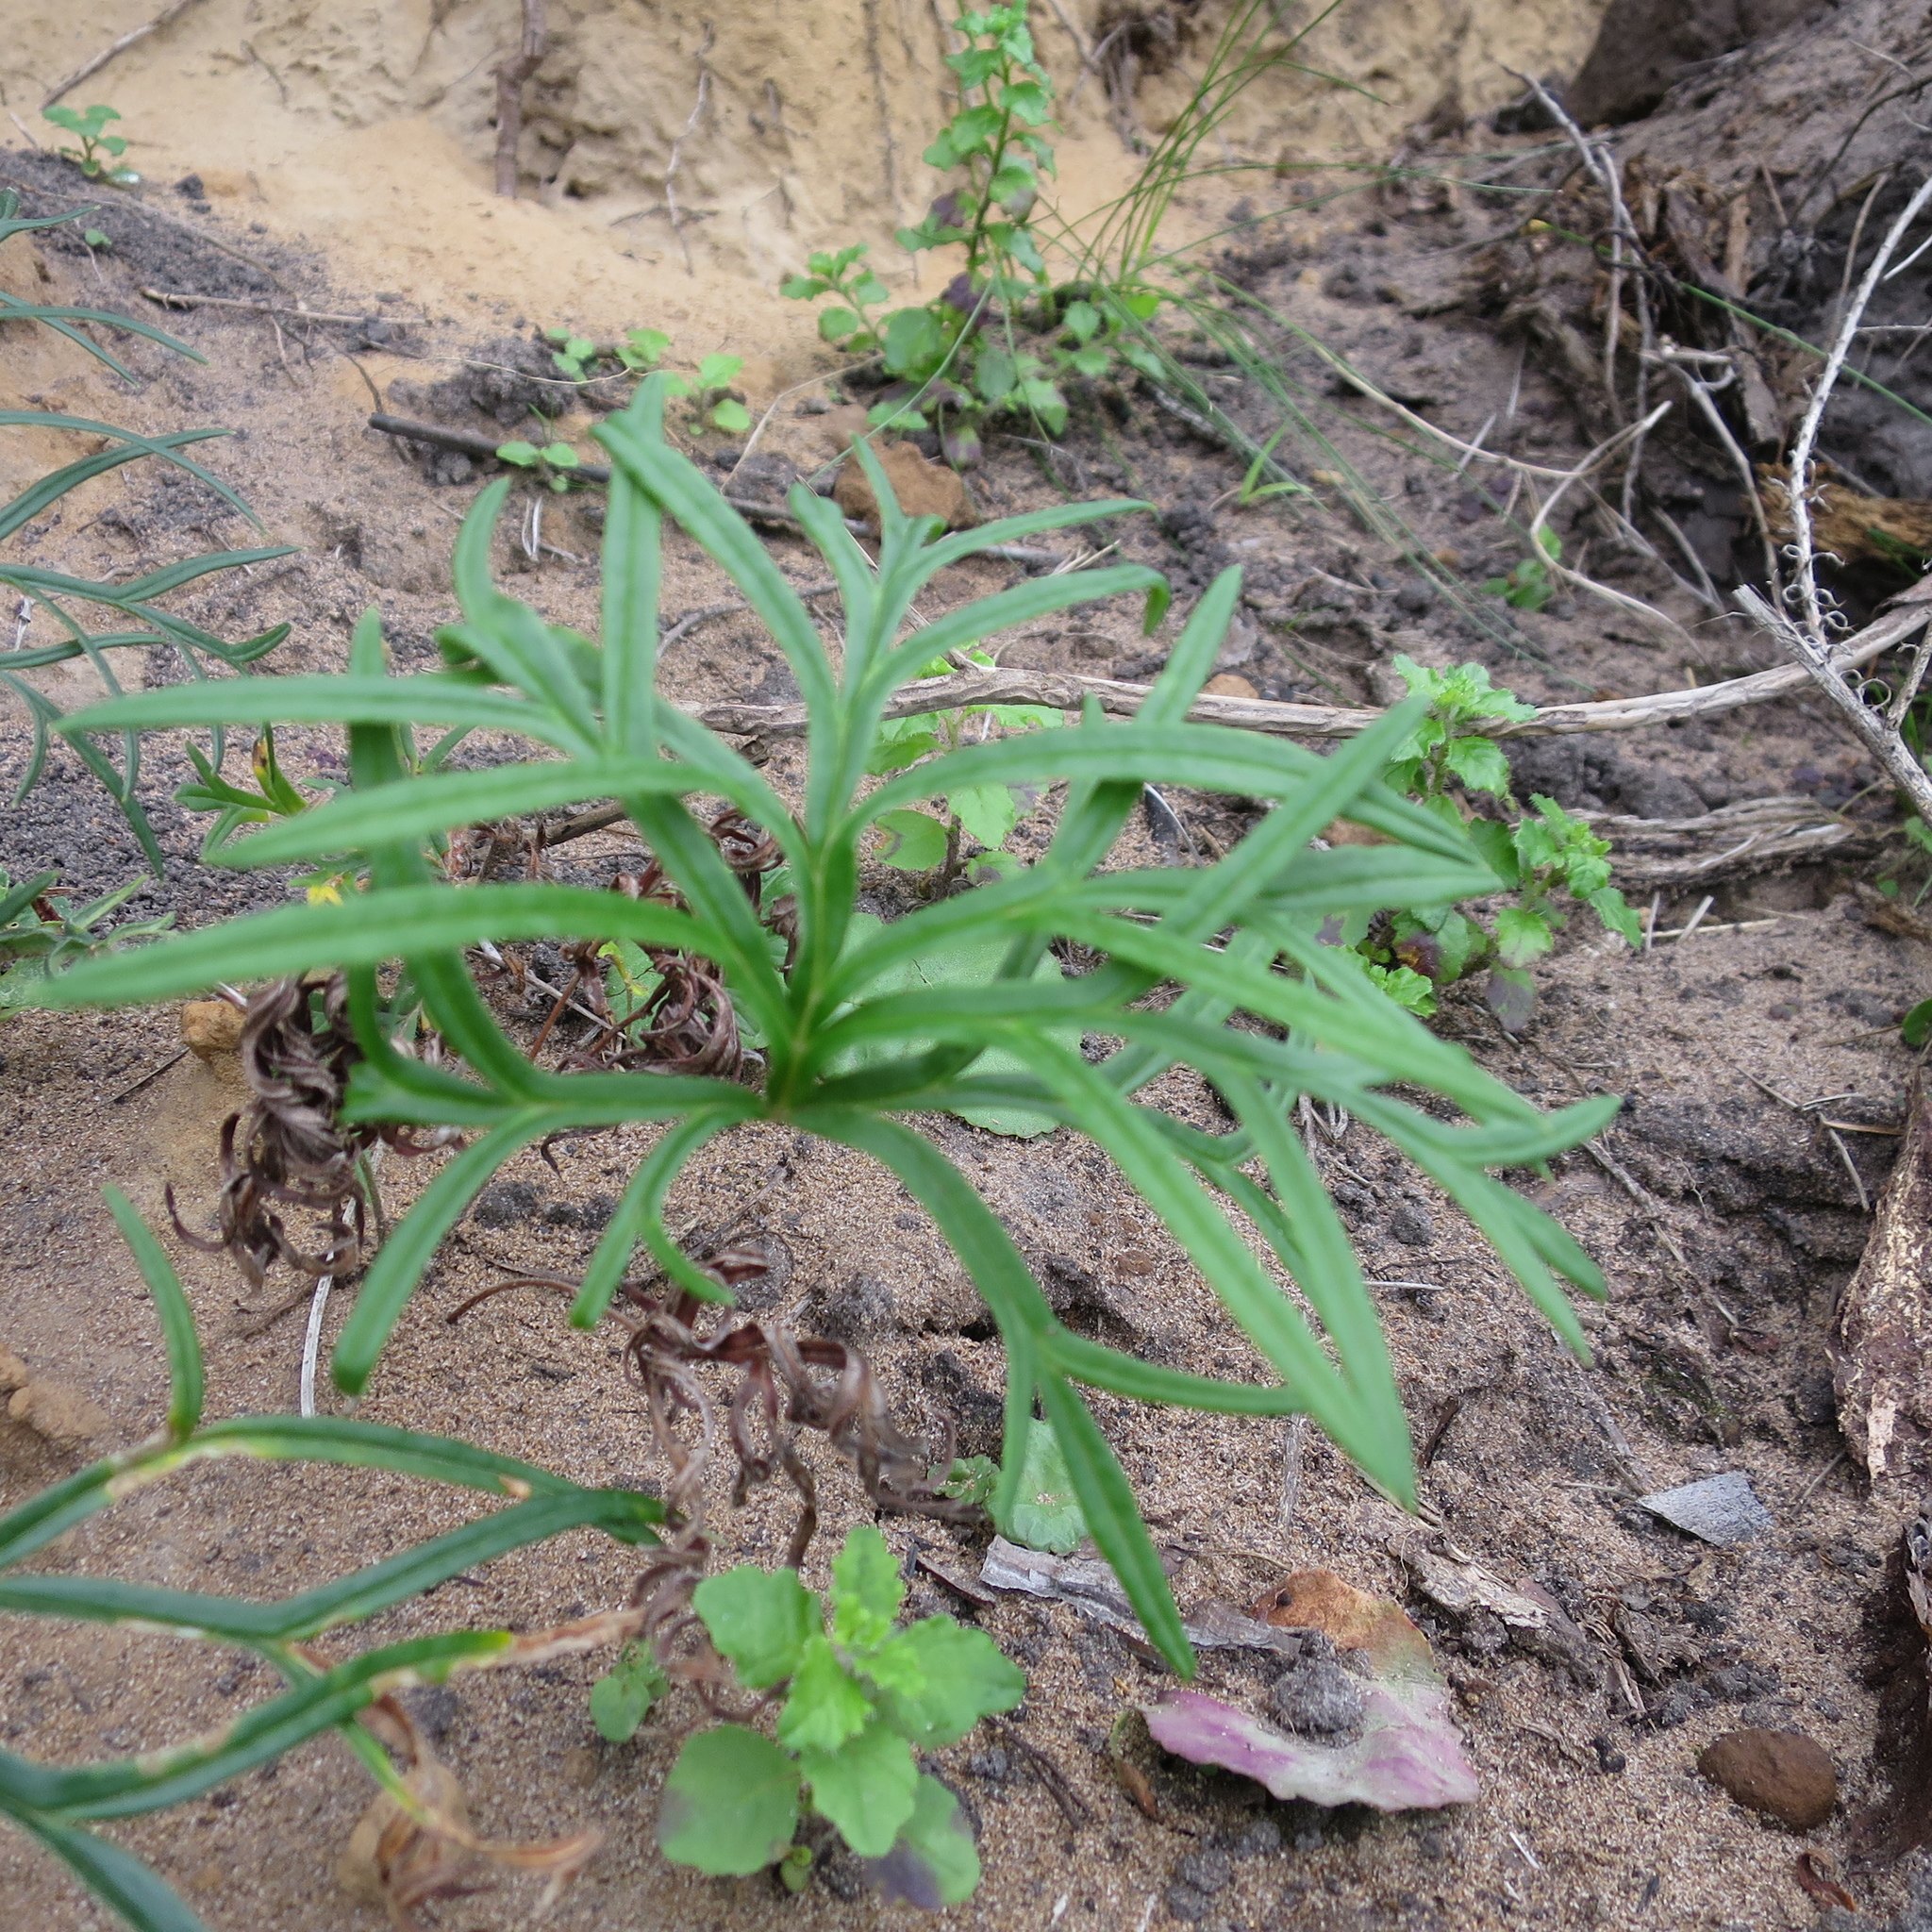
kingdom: Plantae
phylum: Tracheophyta
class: Magnoliopsida
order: Geraniales
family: Geraniaceae
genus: Pelargonium
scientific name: Pelargonium caffrum
